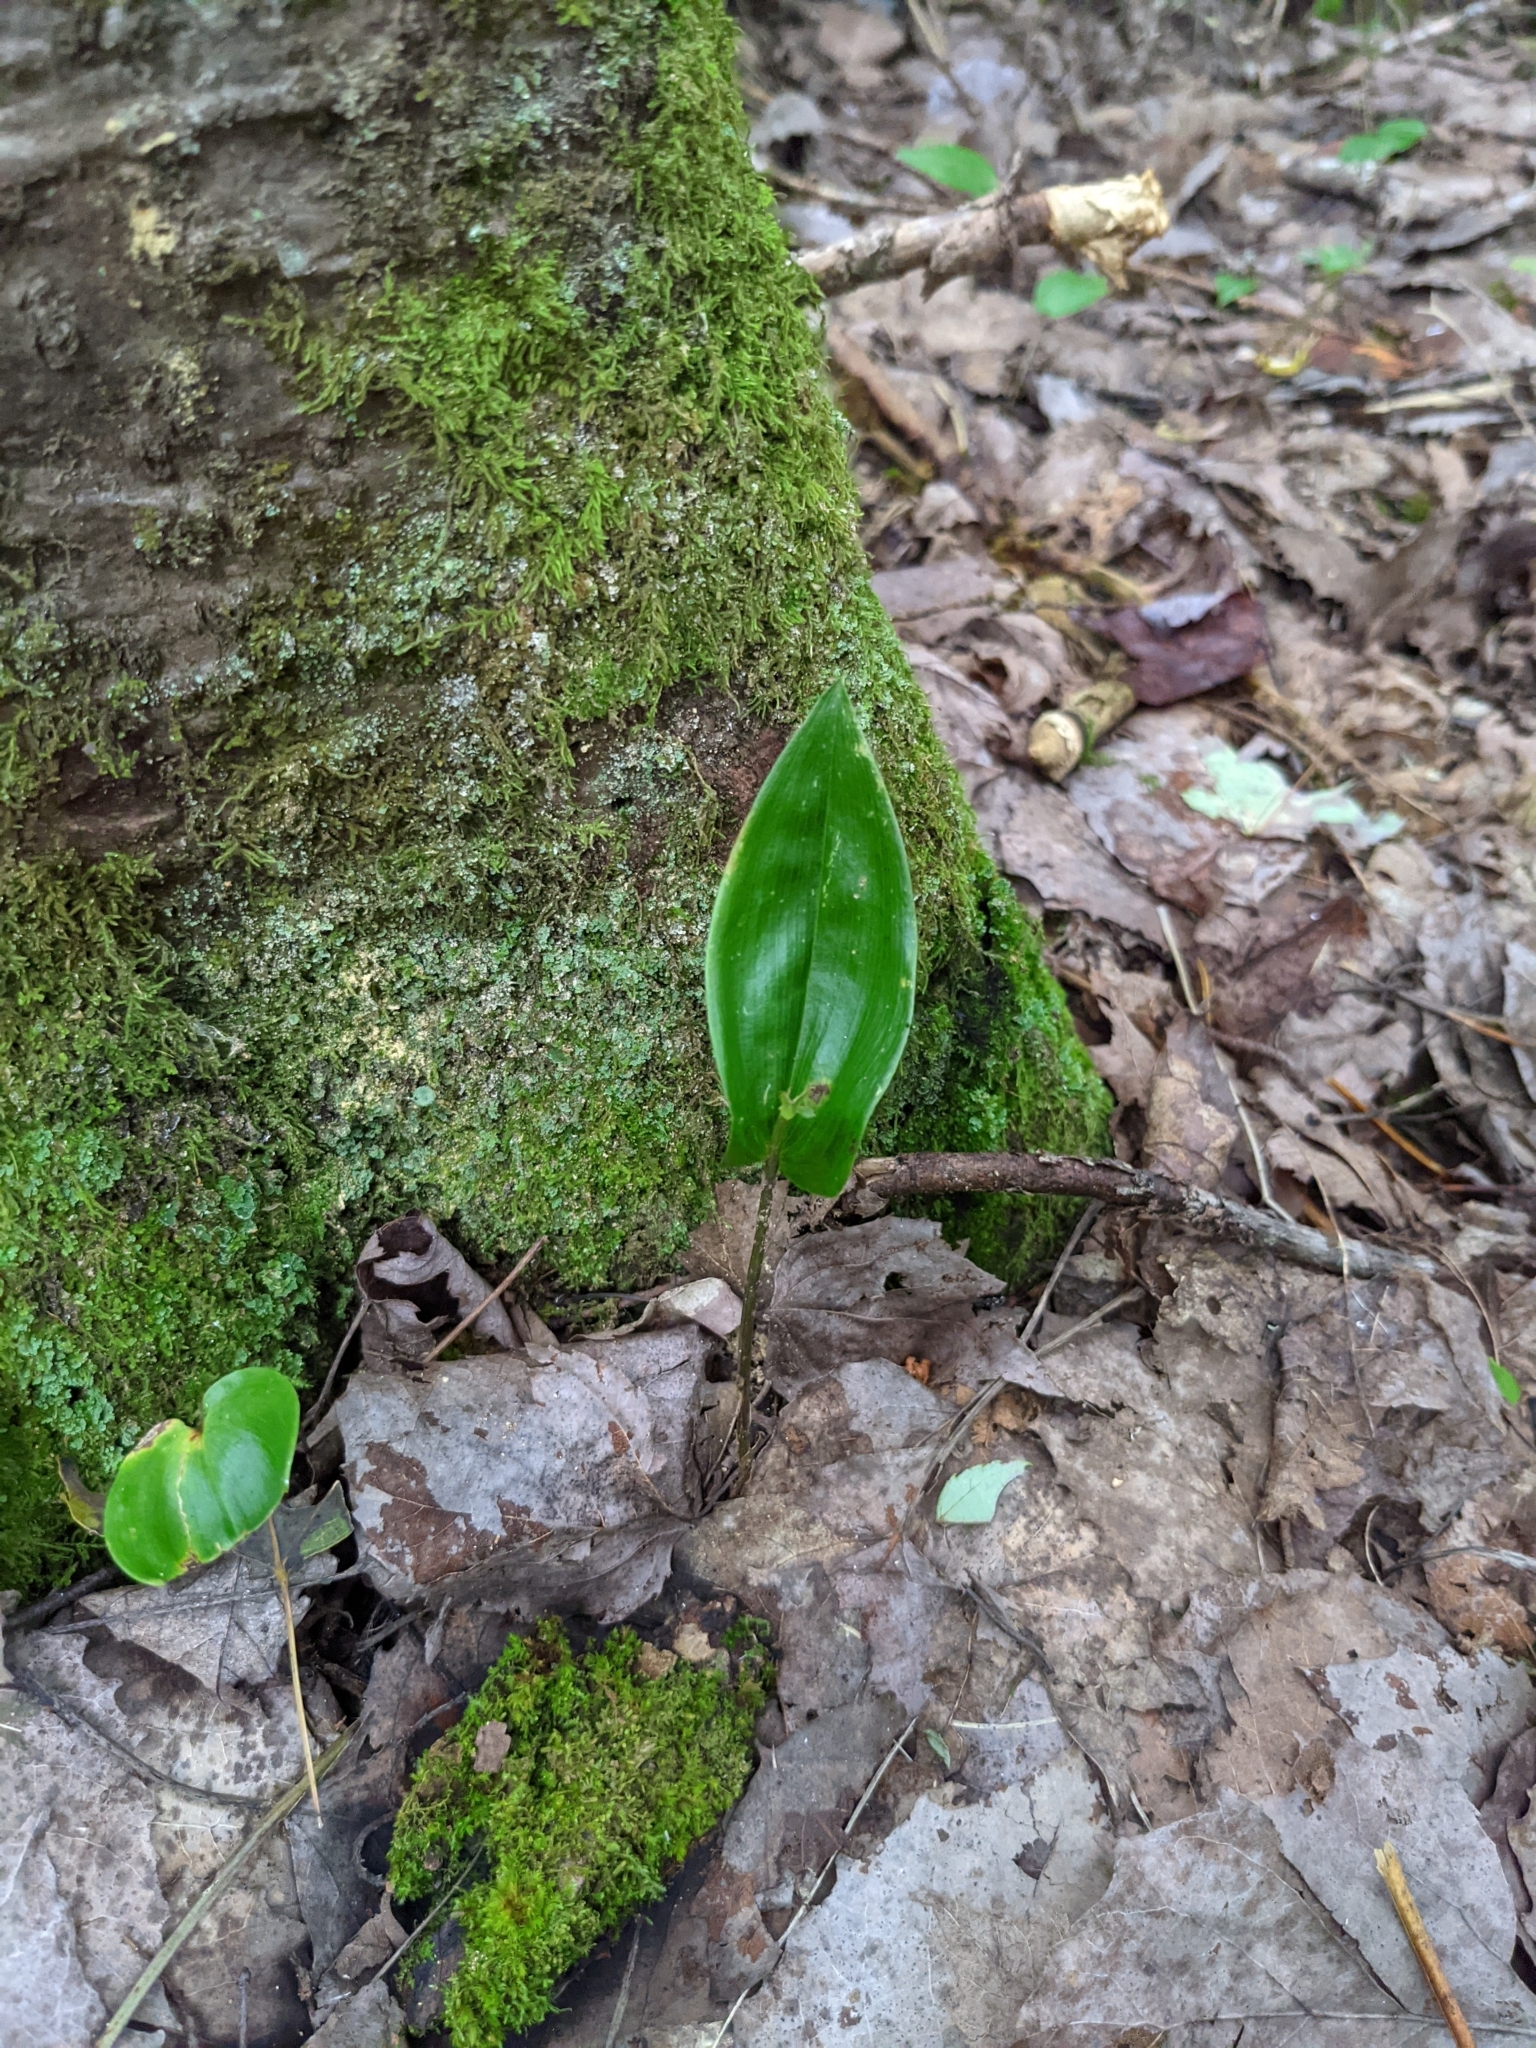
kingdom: Plantae
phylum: Tracheophyta
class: Liliopsida
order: Asparagales
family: Asparagaceae
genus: Maianthemum
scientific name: Maianthemum canadense
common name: False lily-of-the-valley
